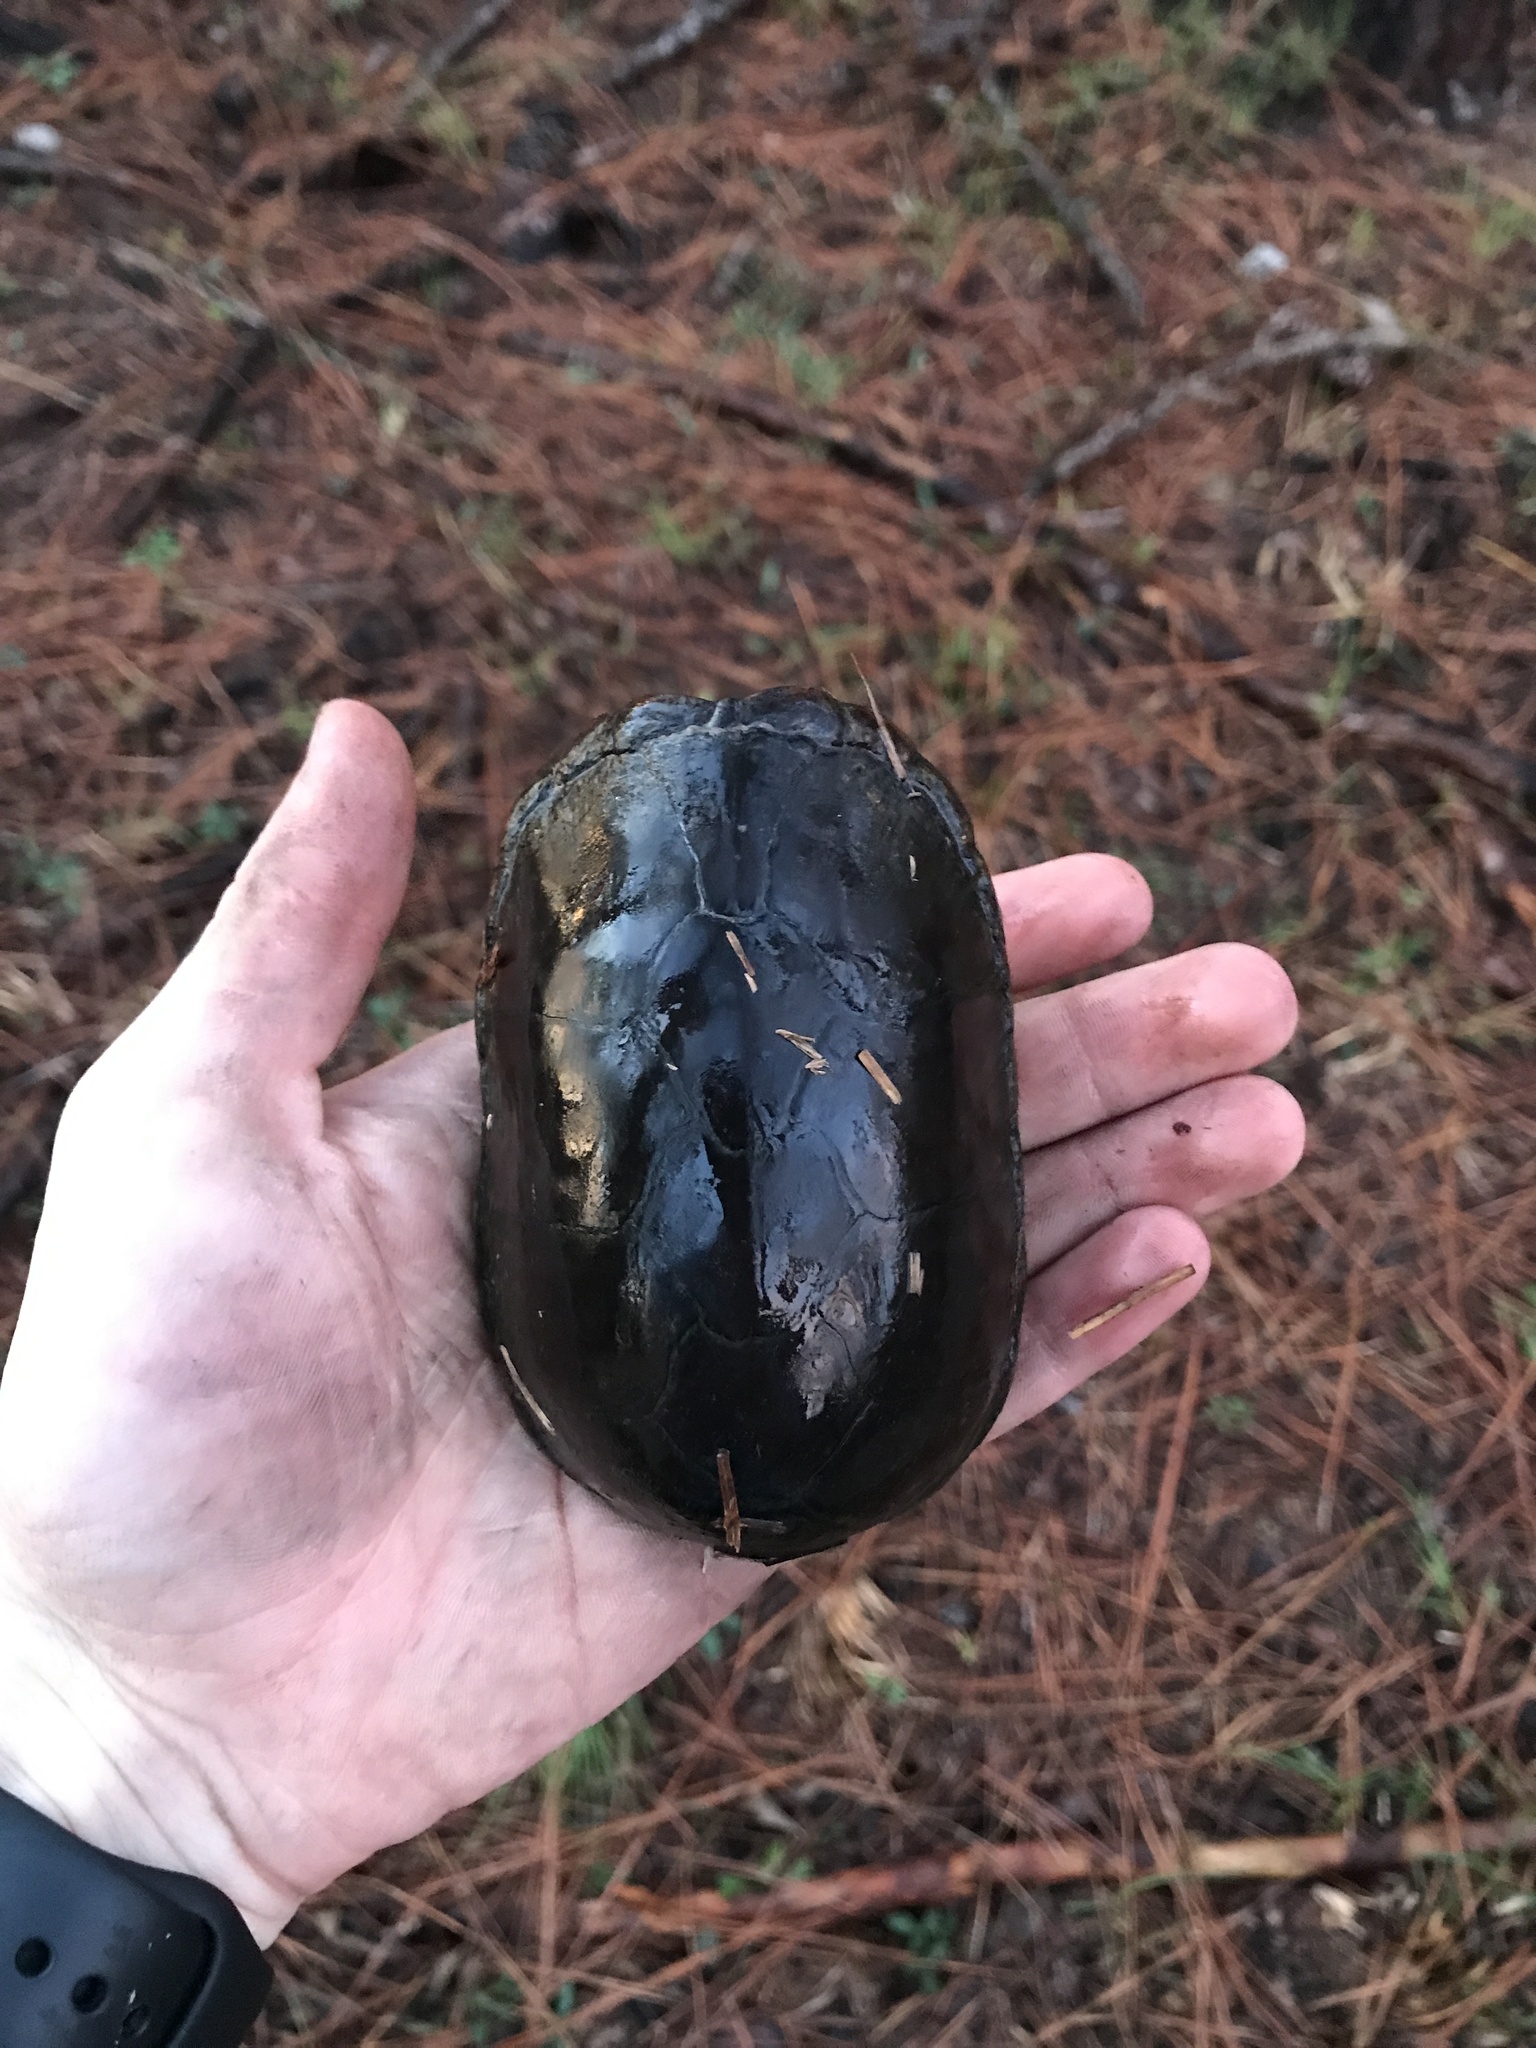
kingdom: Animalia
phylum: Chordata
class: Testudines
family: Kinosternidae
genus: Kinosternon
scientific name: Kinosternon subrubrum
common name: Eastern mud turtle
